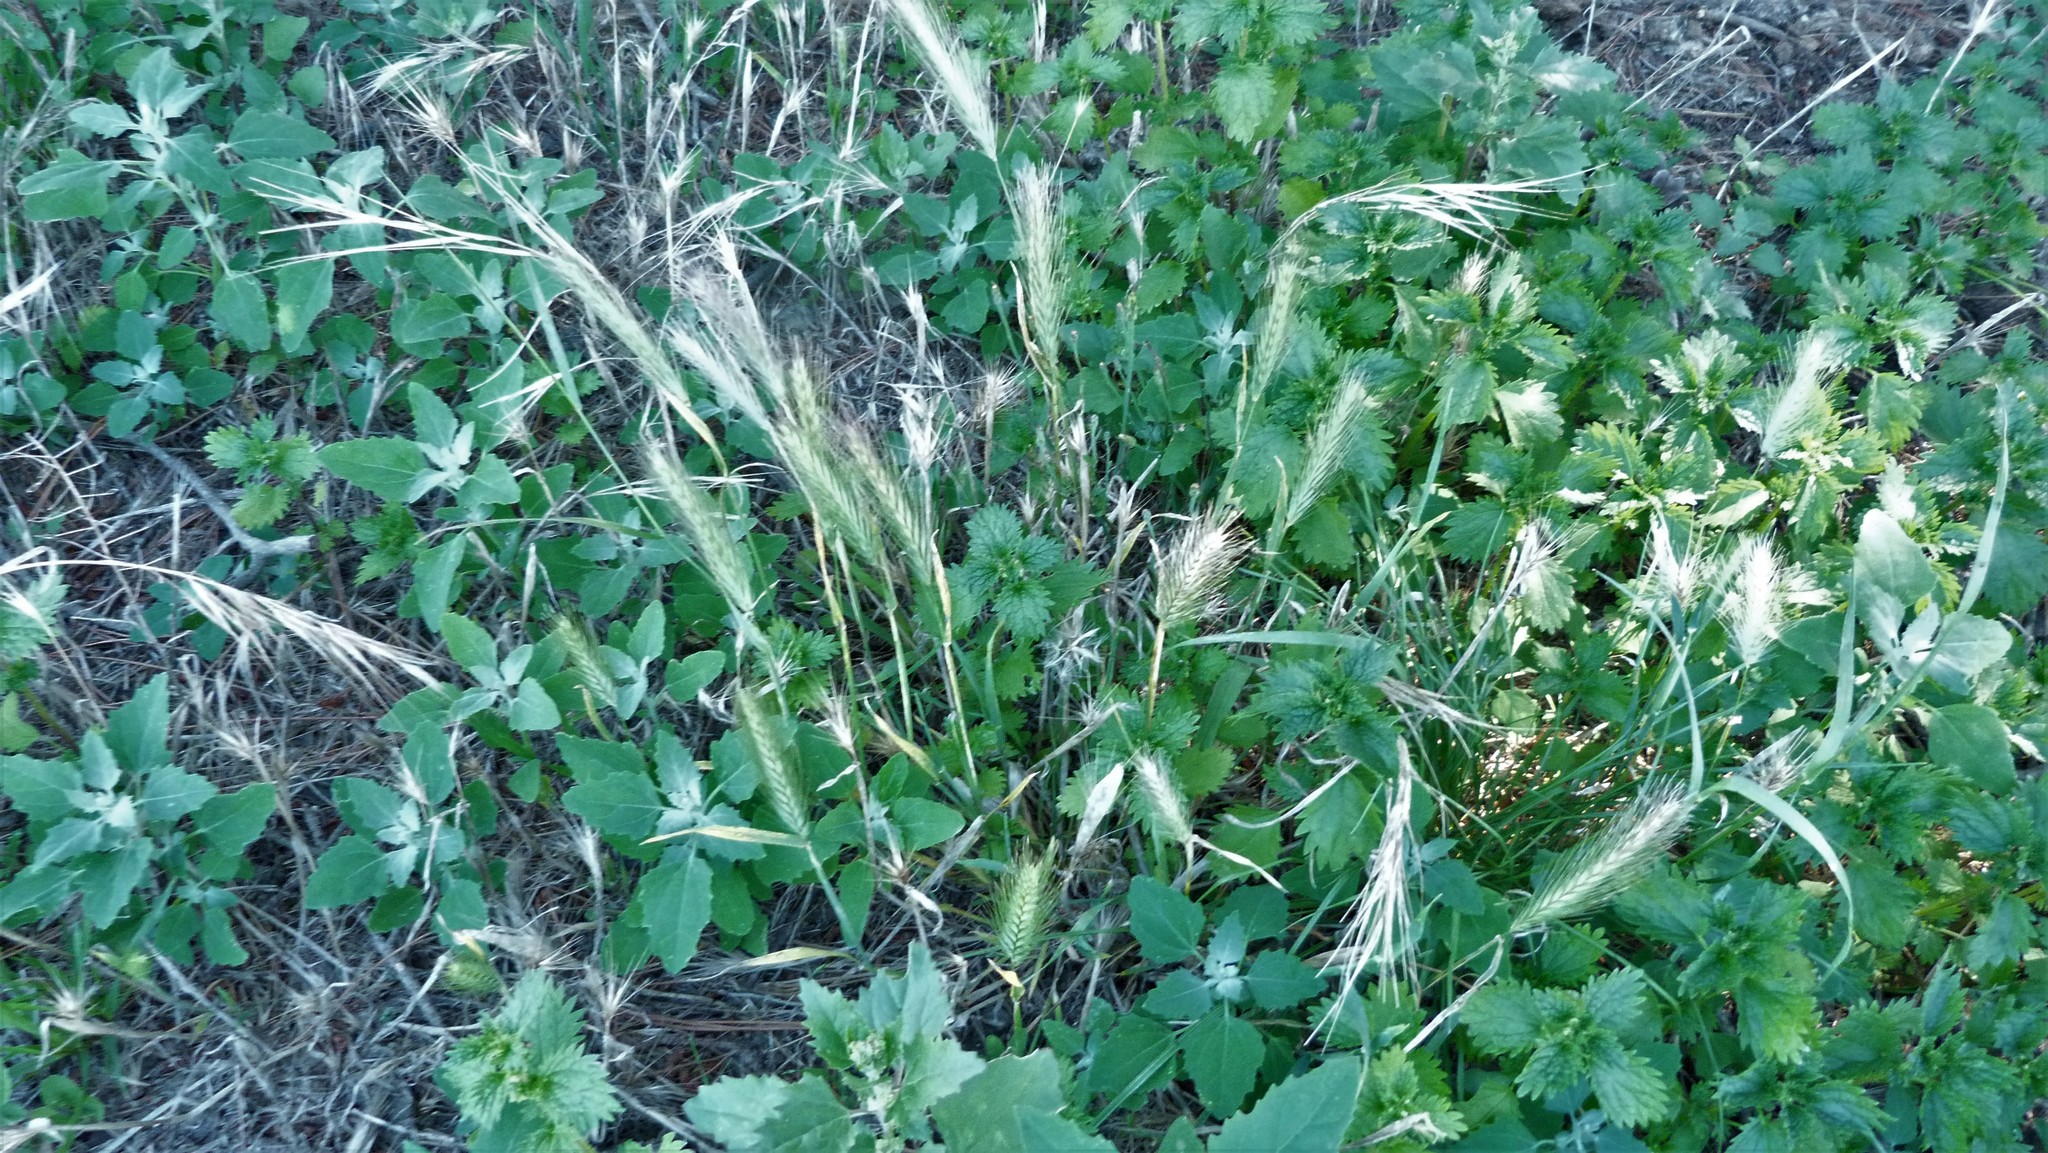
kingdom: Plantae
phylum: Tracheophyta
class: Magnoliopsida
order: Rosales
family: Urticaceae
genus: Urtica
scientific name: Urtica urens
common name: Dwarf nettle
